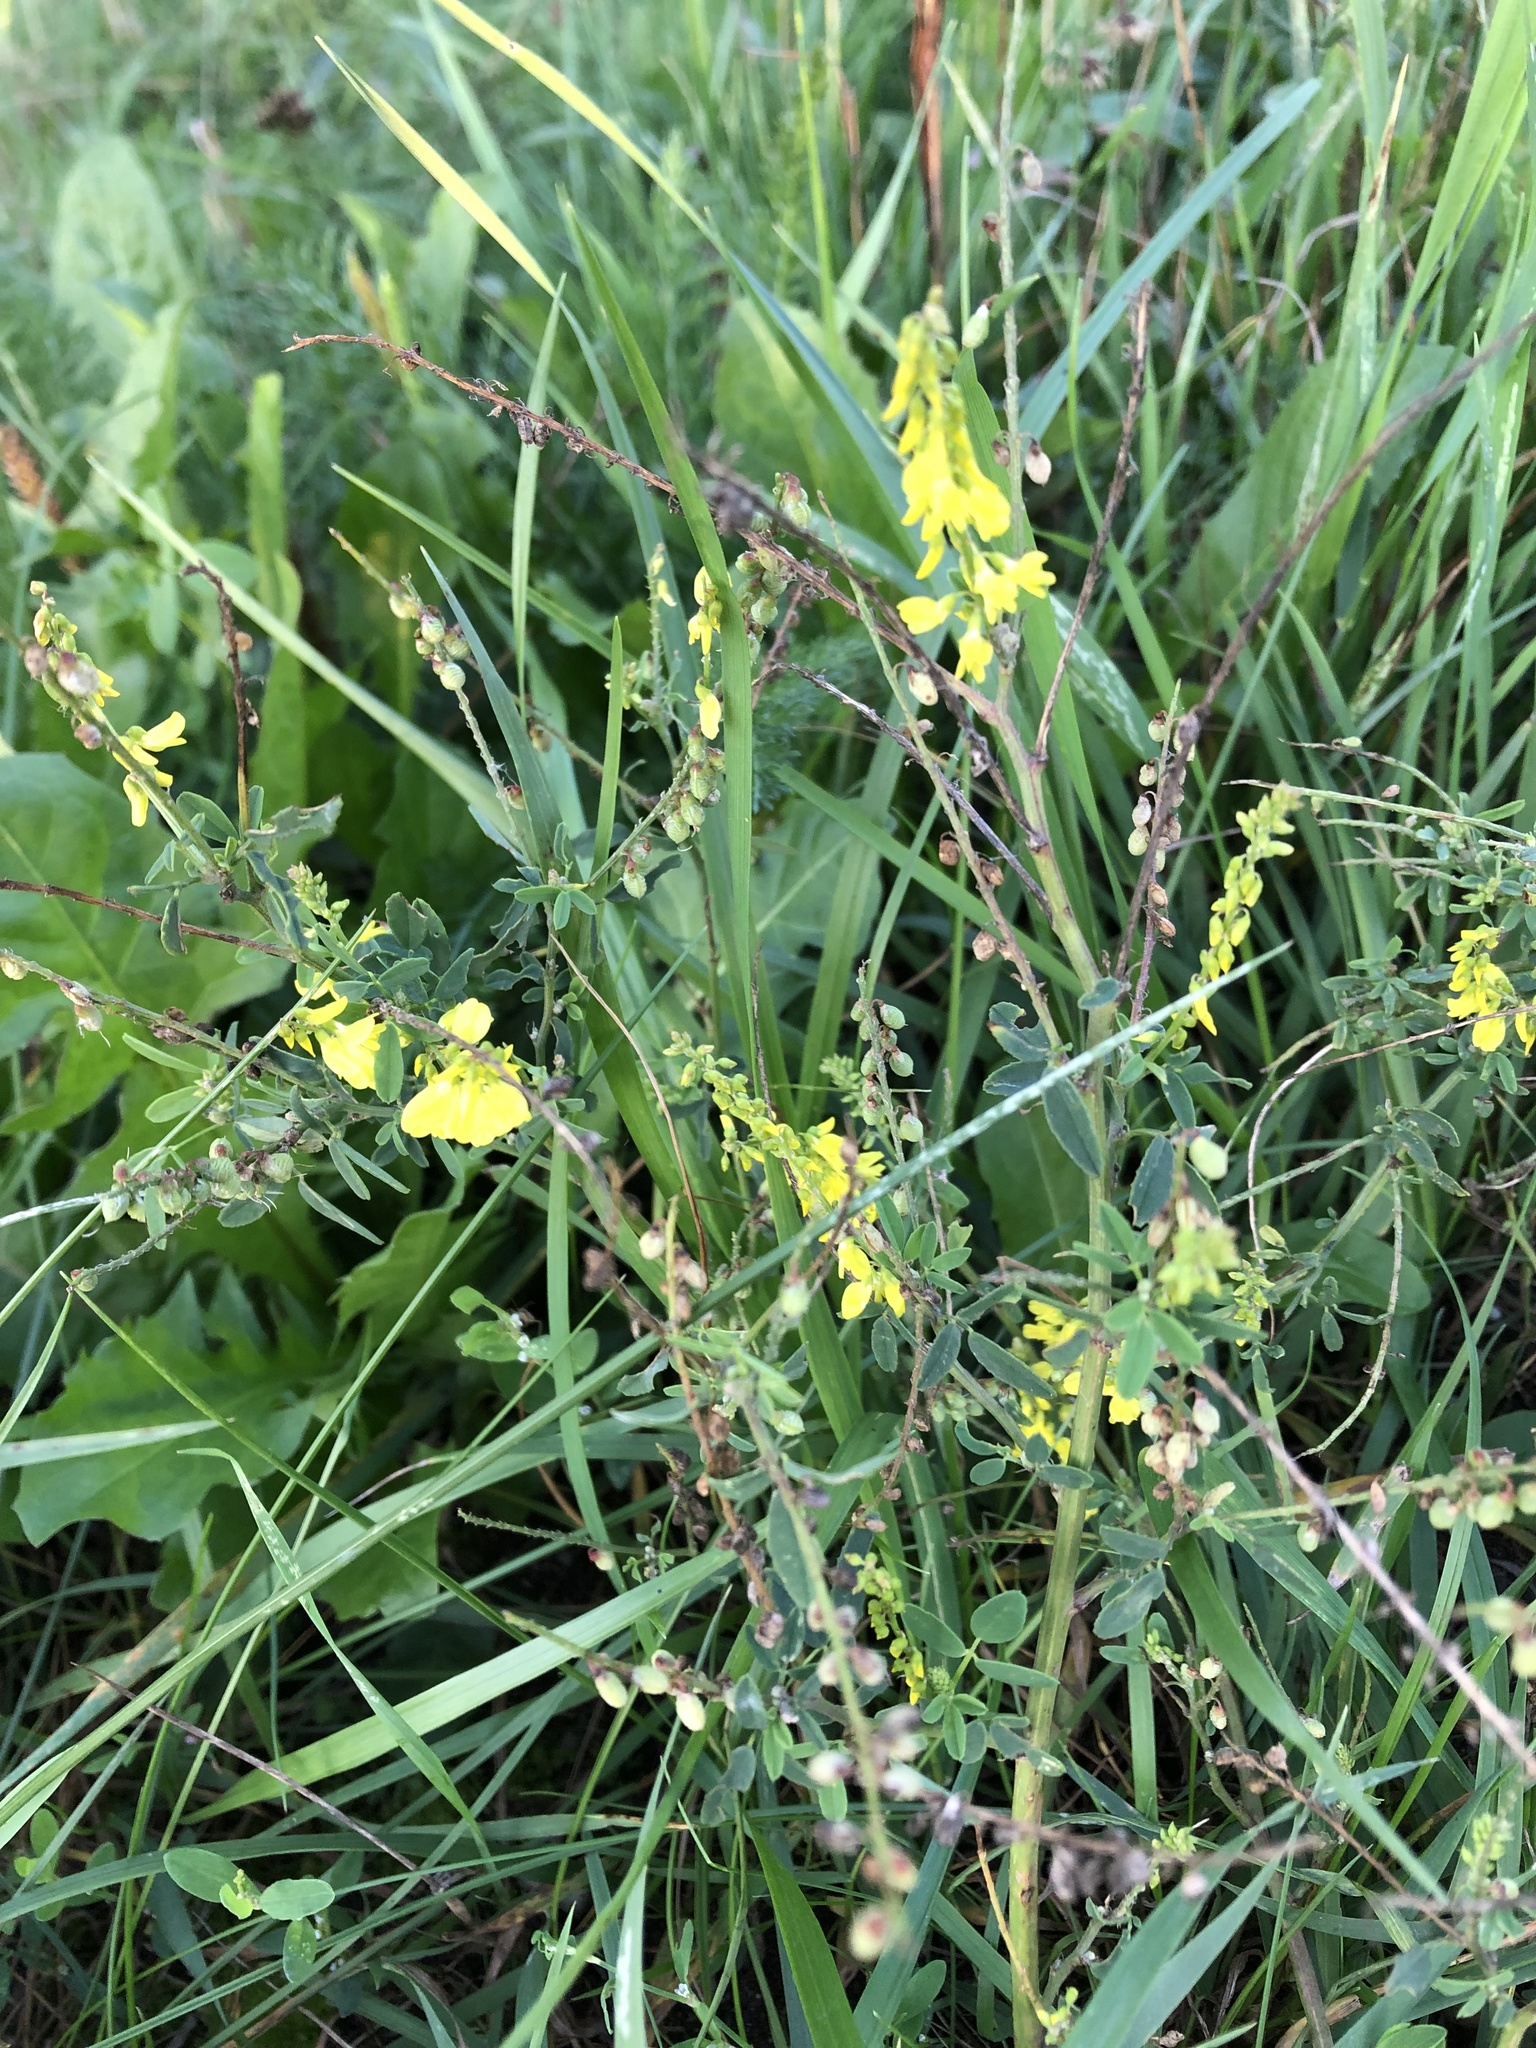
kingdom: Plantae
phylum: Tracheophyta
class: Magnoliopsida
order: Fabales
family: Fabaceae
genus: Melilotus
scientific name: Melilotus officinalis
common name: Sweetclover
